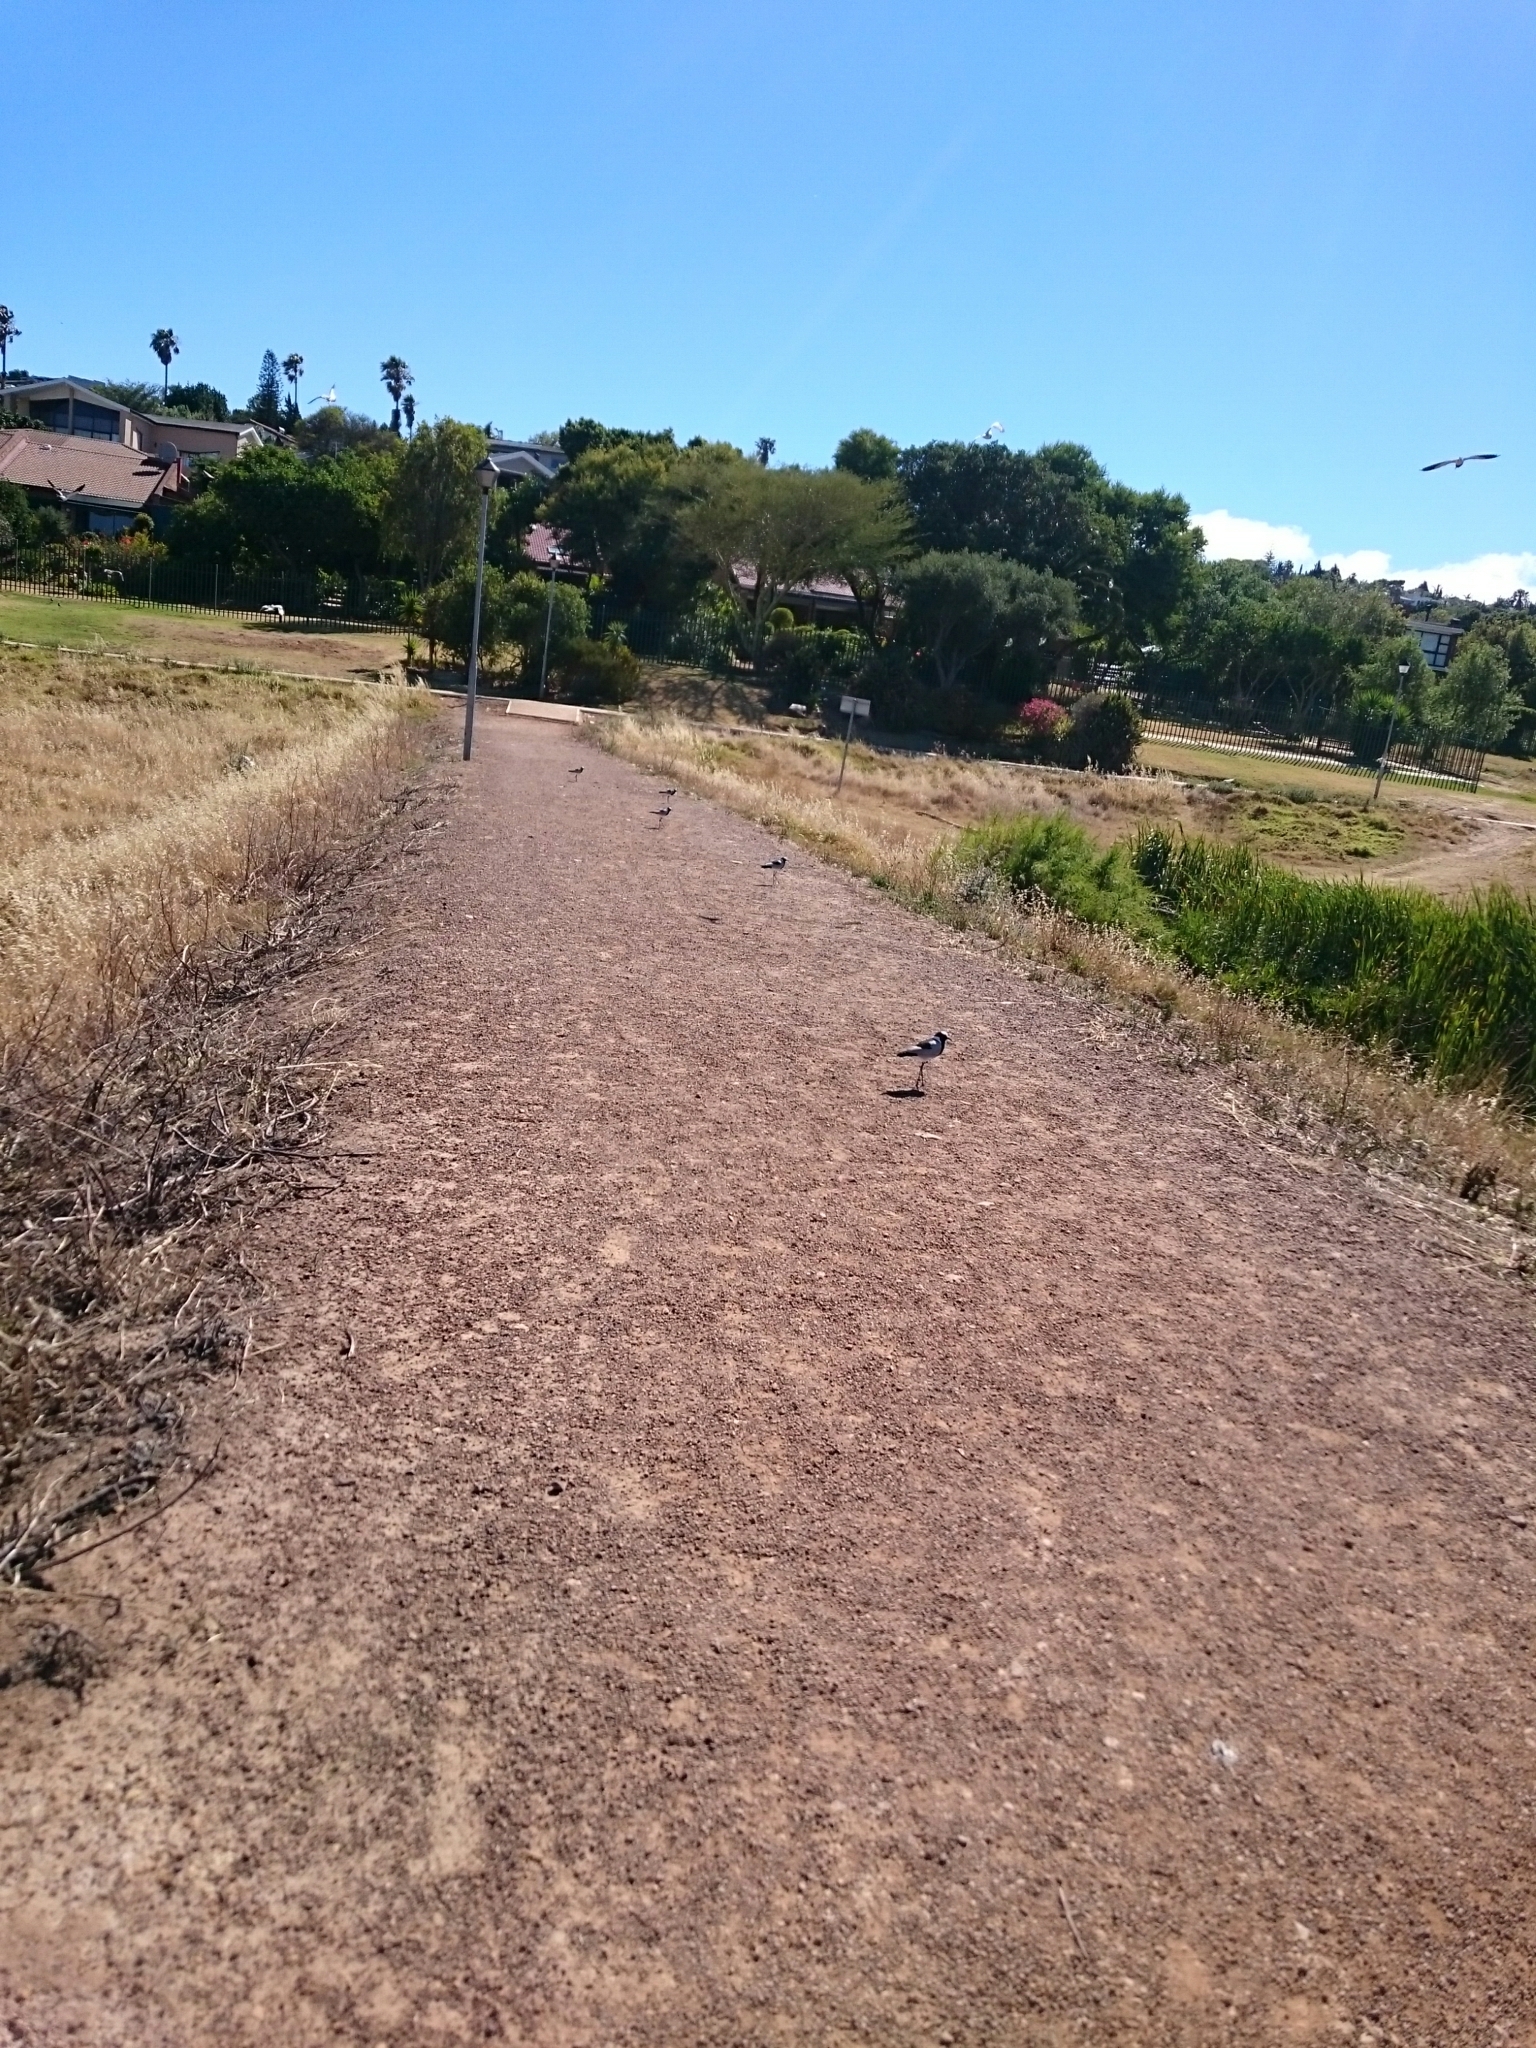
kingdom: Animalia
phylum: Chordata
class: Aves
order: Charadriiformes
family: Charadriidae
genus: Vanellus
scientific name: Vanellus armatus
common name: Blacksmith lapwing
